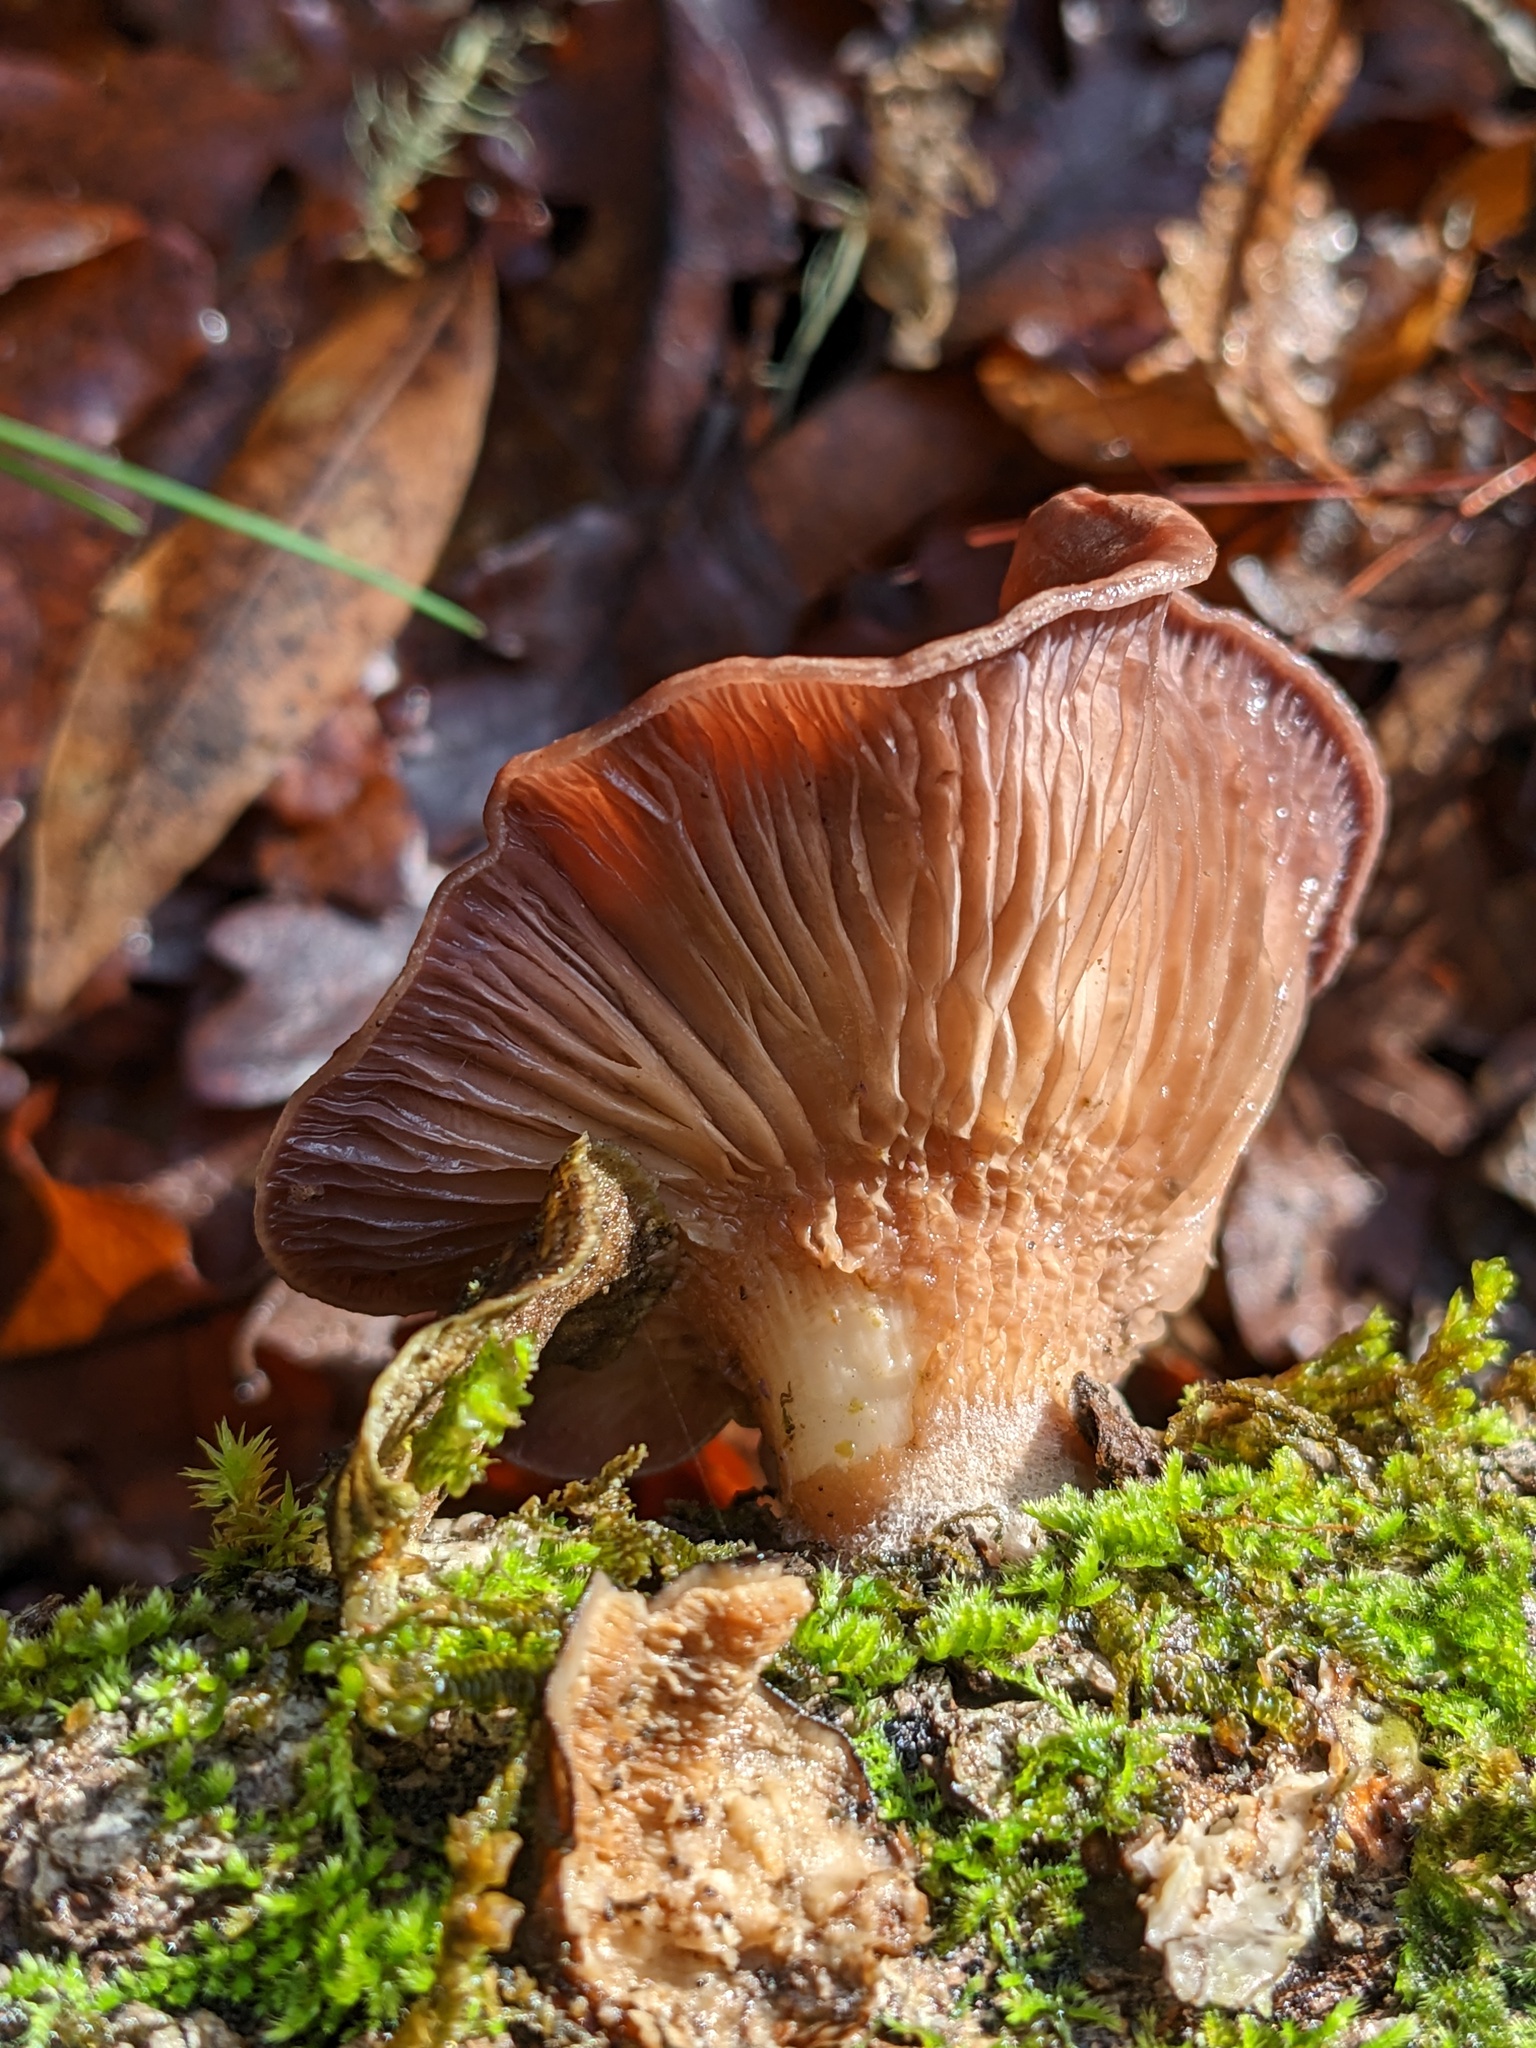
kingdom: Fungi
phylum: Basidiomycota
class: Agaricomycetes
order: Polyporales
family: Panaceae
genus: Panus
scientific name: Panus conchatus
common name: Lilac oysterling
